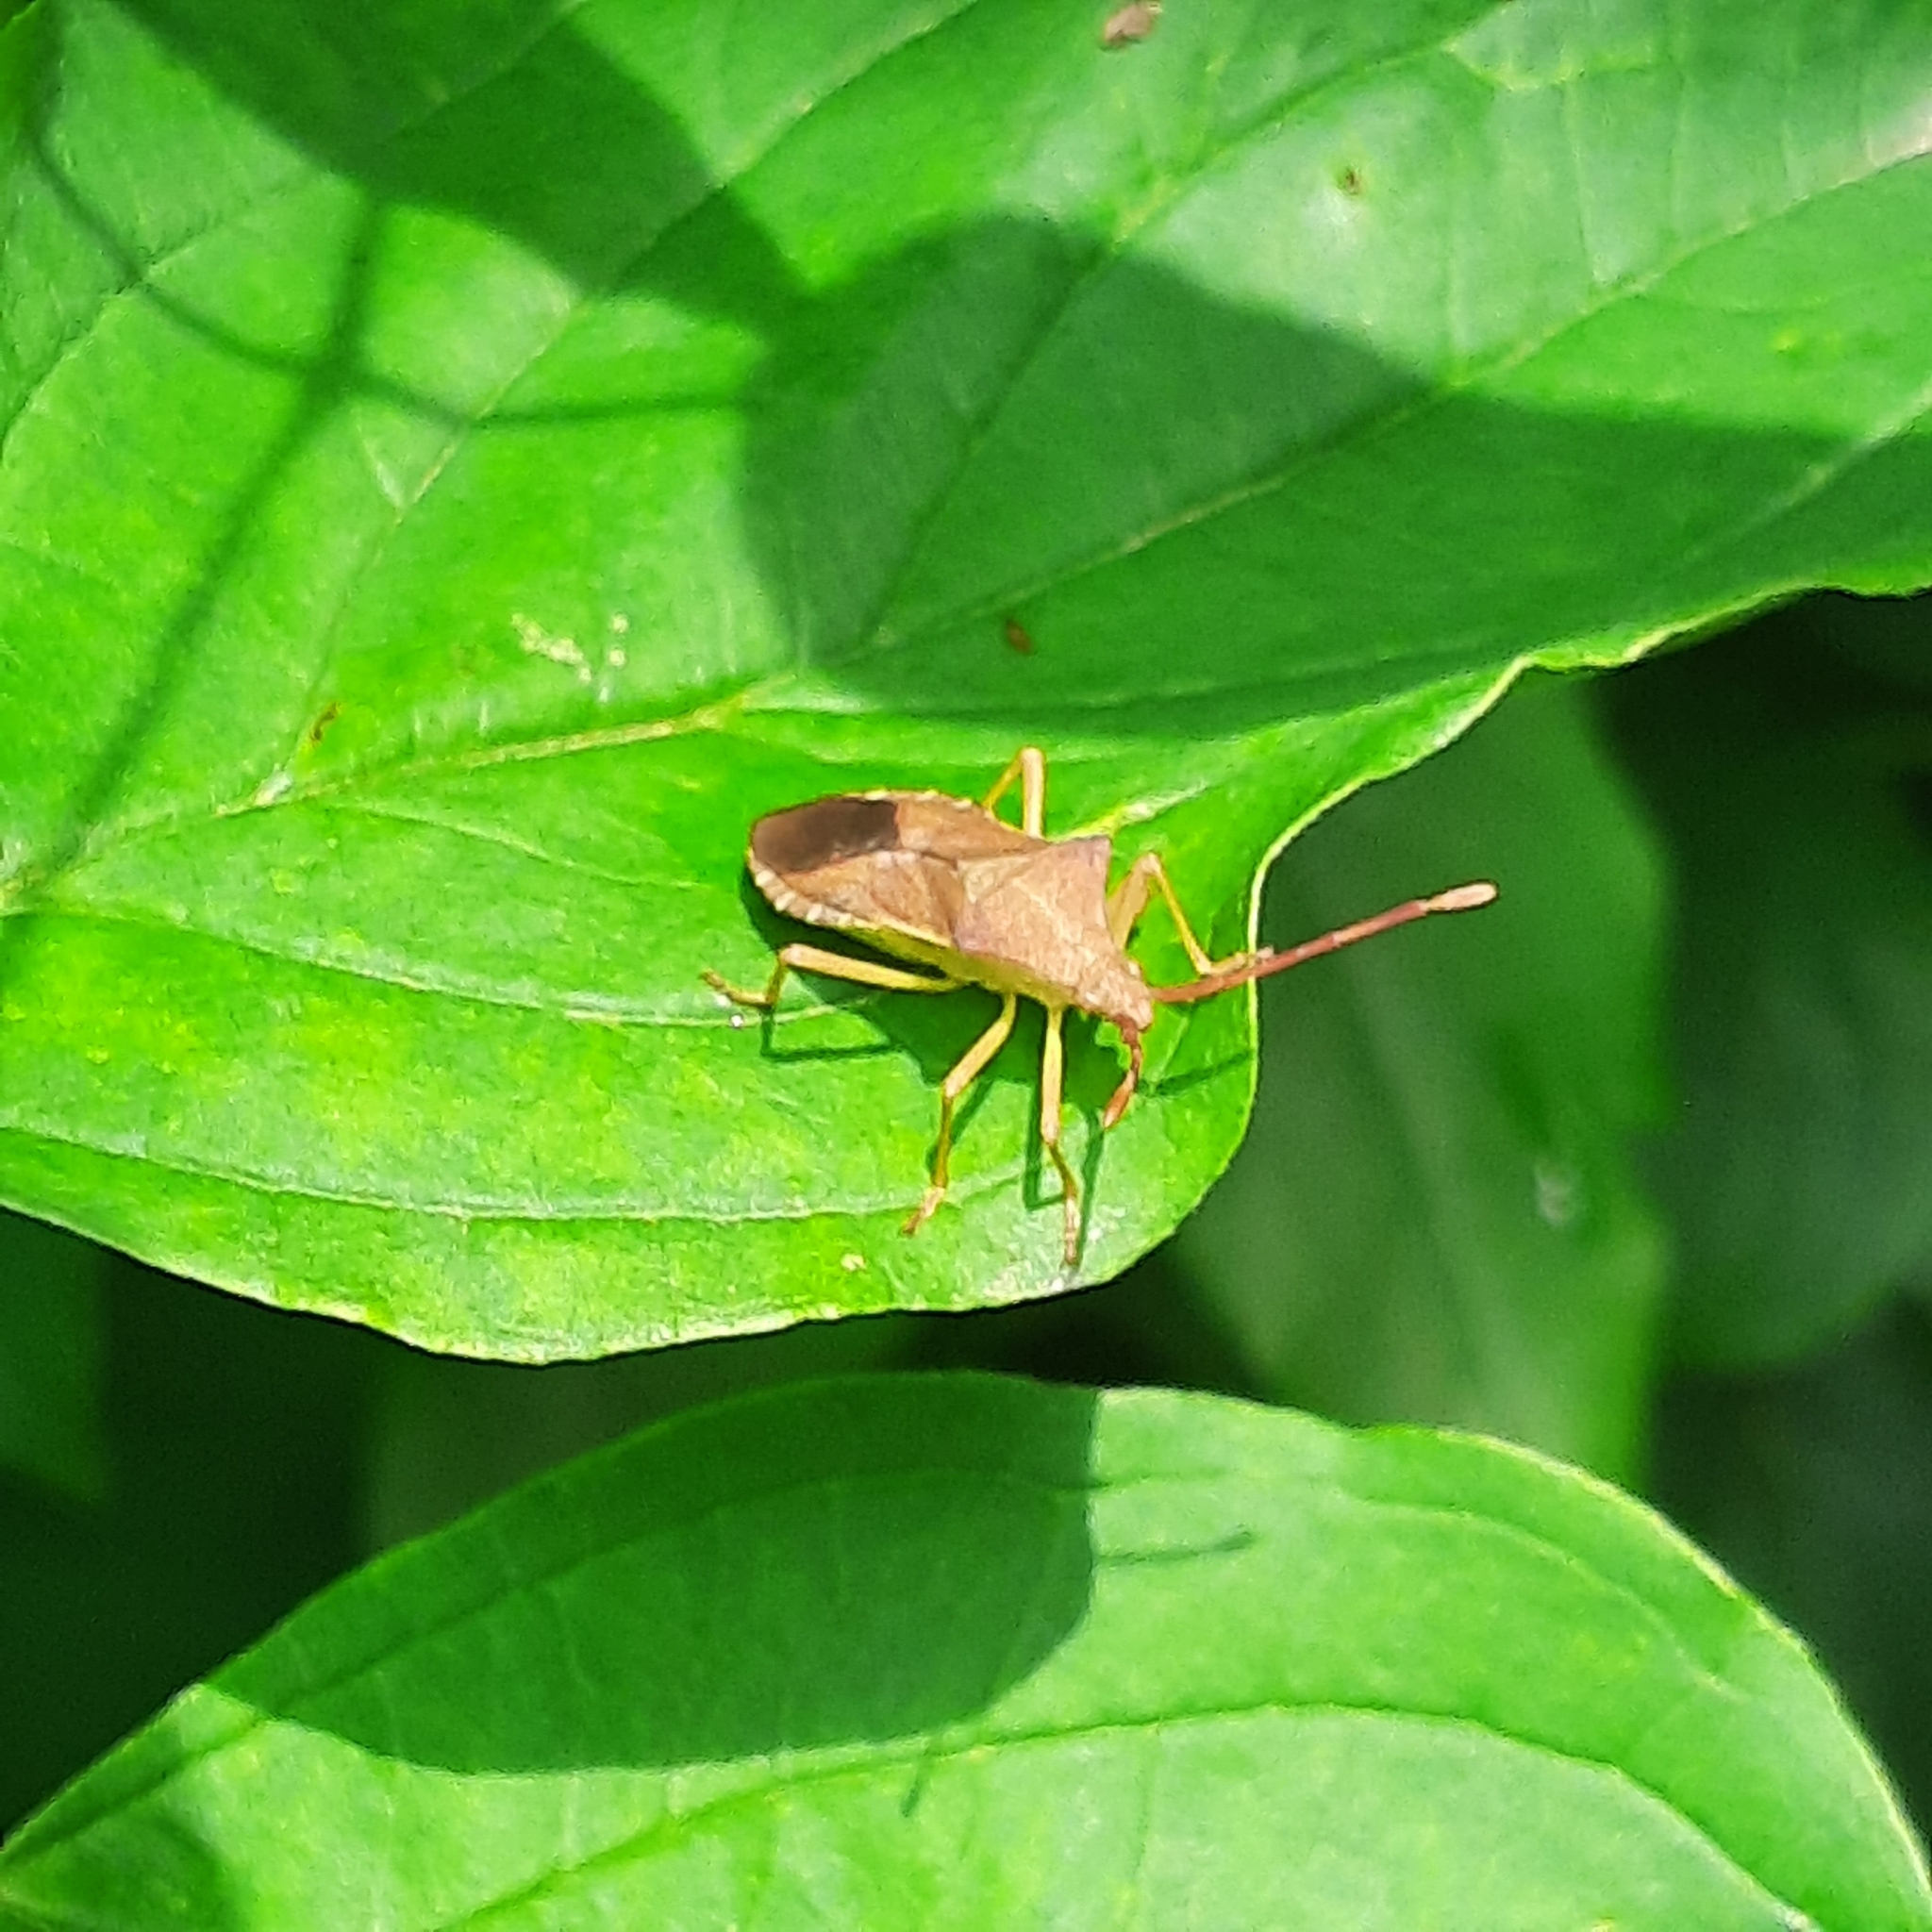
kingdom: Animalia
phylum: Arthropoda
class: Insecta
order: Hemiptera
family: Coreidae
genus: Gonocerus
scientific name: Gonocerus acuteangulatus
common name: Box bug
